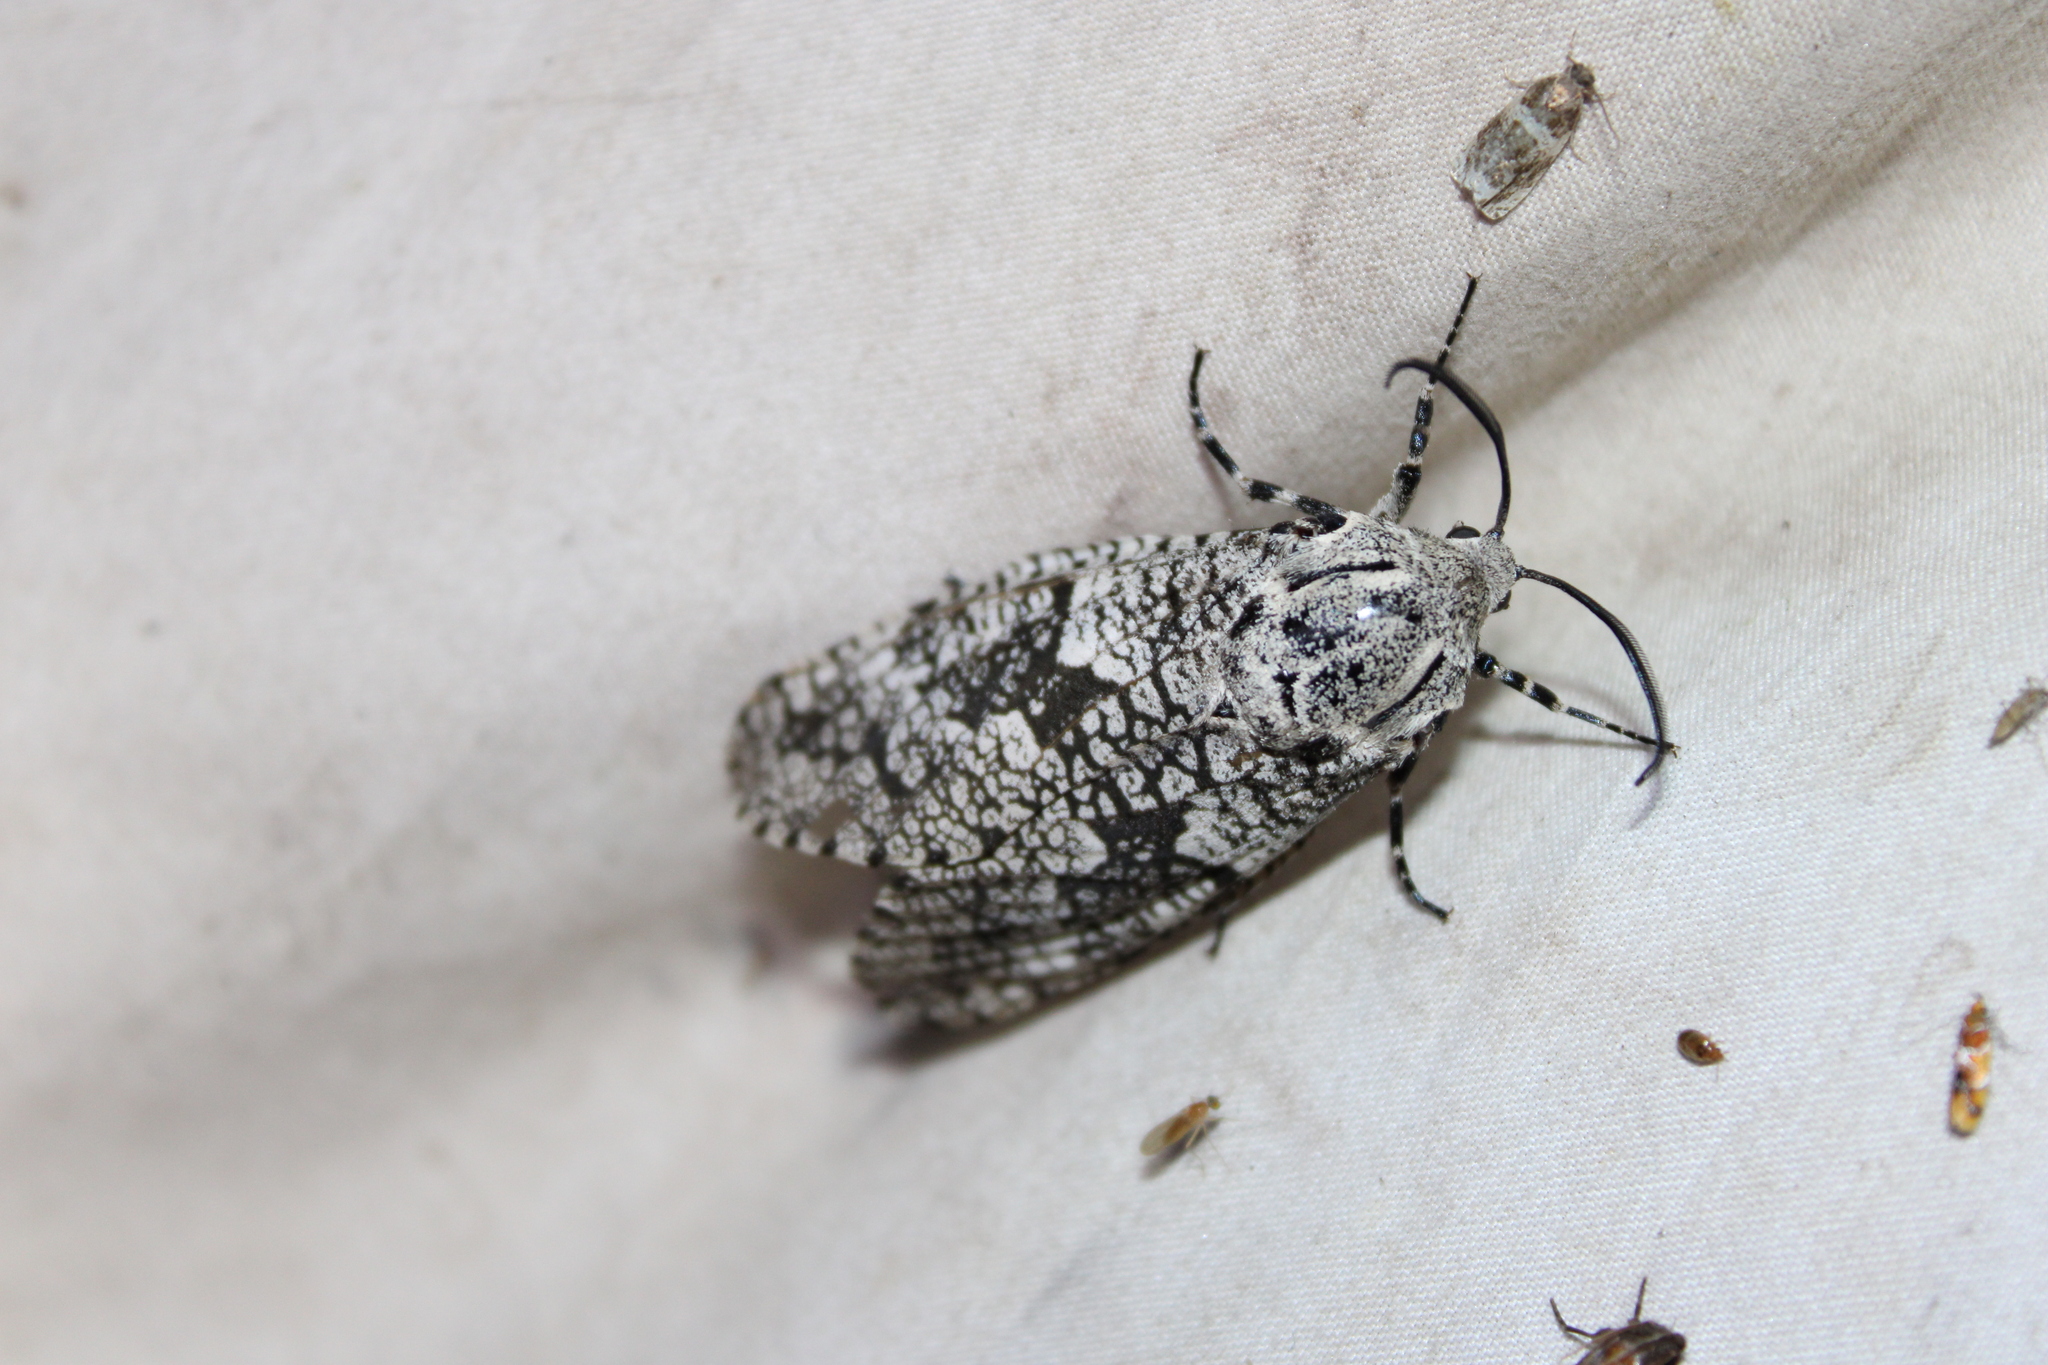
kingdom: Animalia
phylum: Arthropoda
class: Insecta
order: Lepidoptera
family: Cossidae
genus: Prionoxystus
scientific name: Prionoxystus robiniae
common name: Carpenterworm
